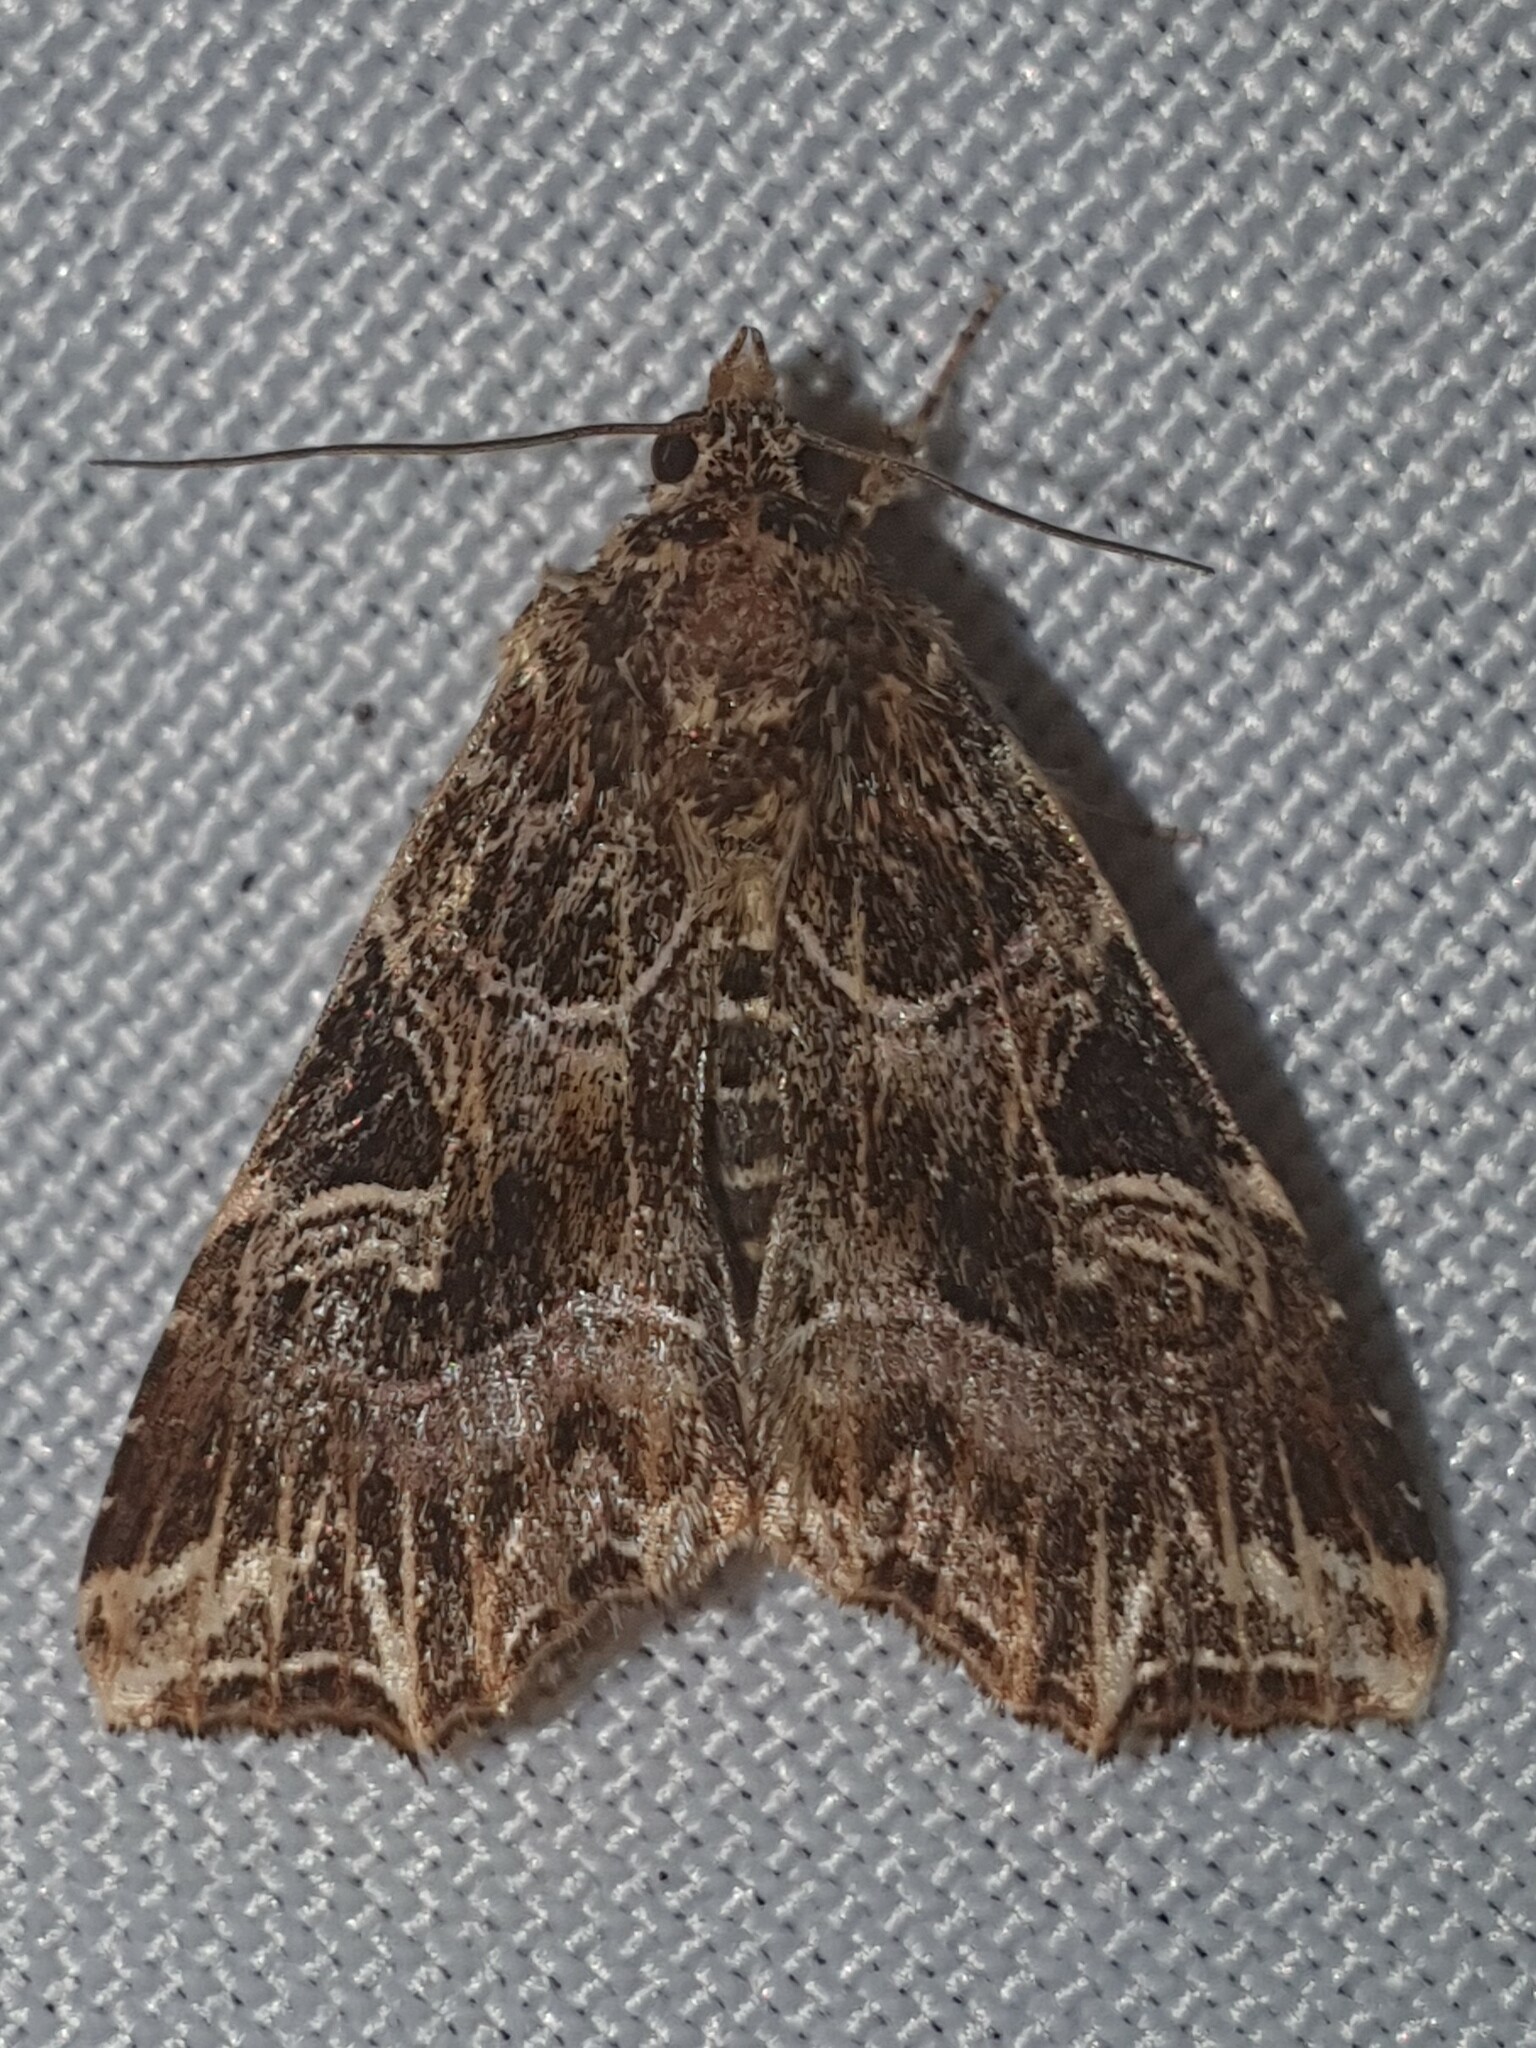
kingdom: Animalia
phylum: Arthropoda
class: Insecta
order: Lepidoptera
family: Noctuidae
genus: Callopistria
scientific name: Callopistria juventina
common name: Latin
